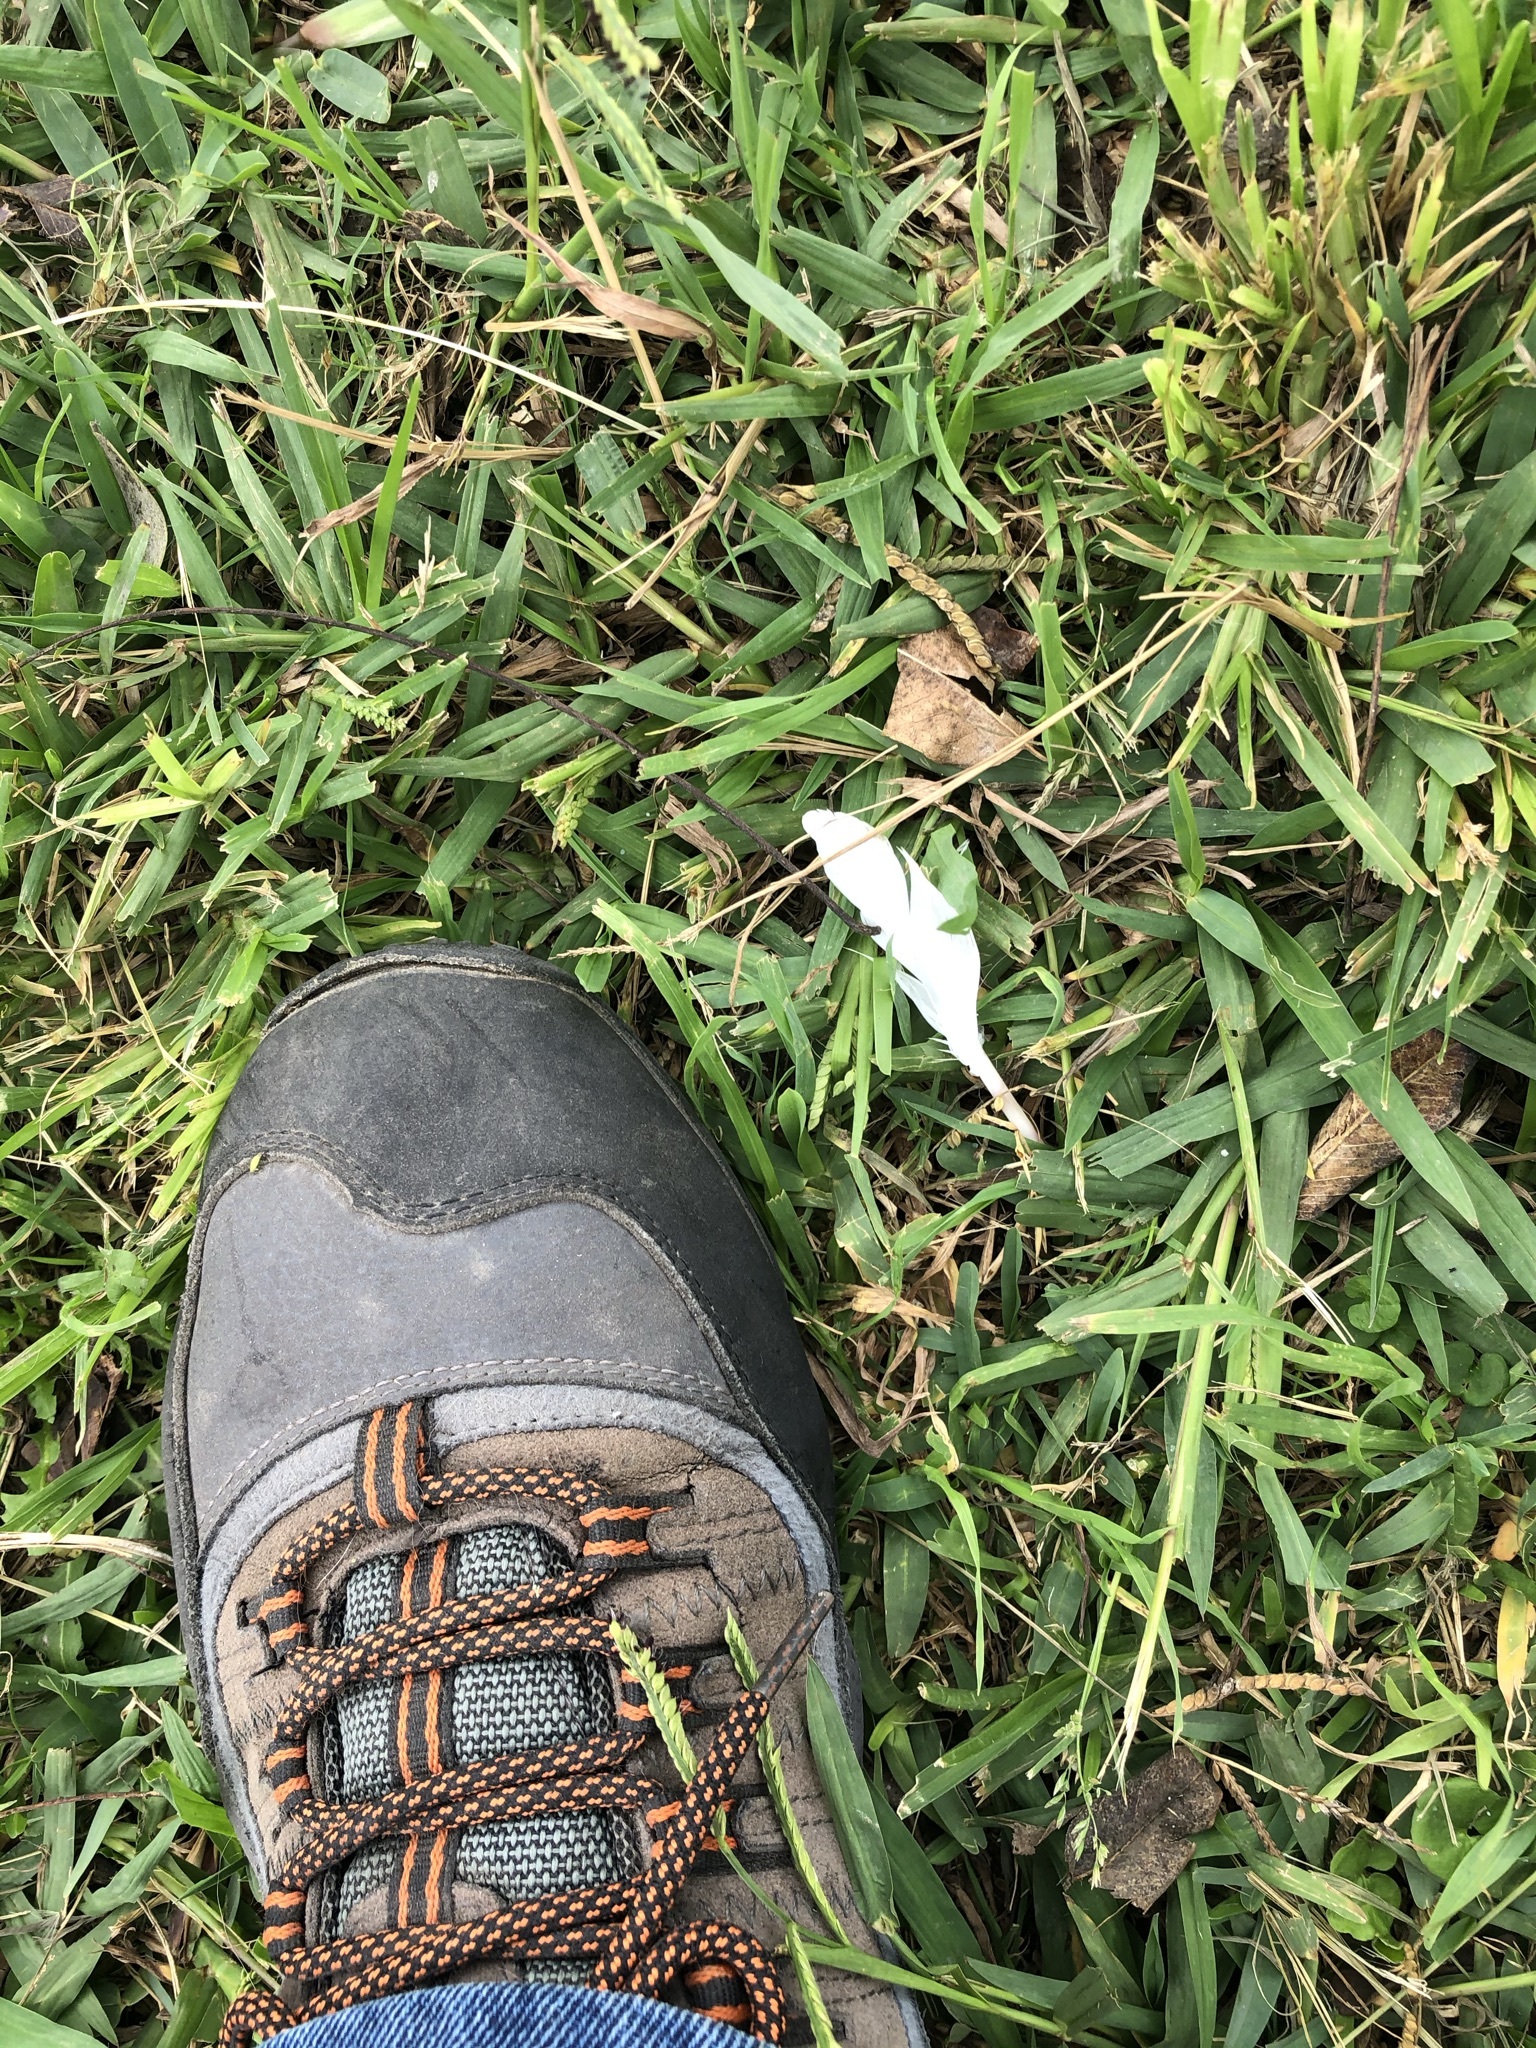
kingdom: Animalia
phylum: Chordata
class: Aves
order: Columbiformes
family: Columbidae
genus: Columba
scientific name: Columba livia
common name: Rock pigeon
